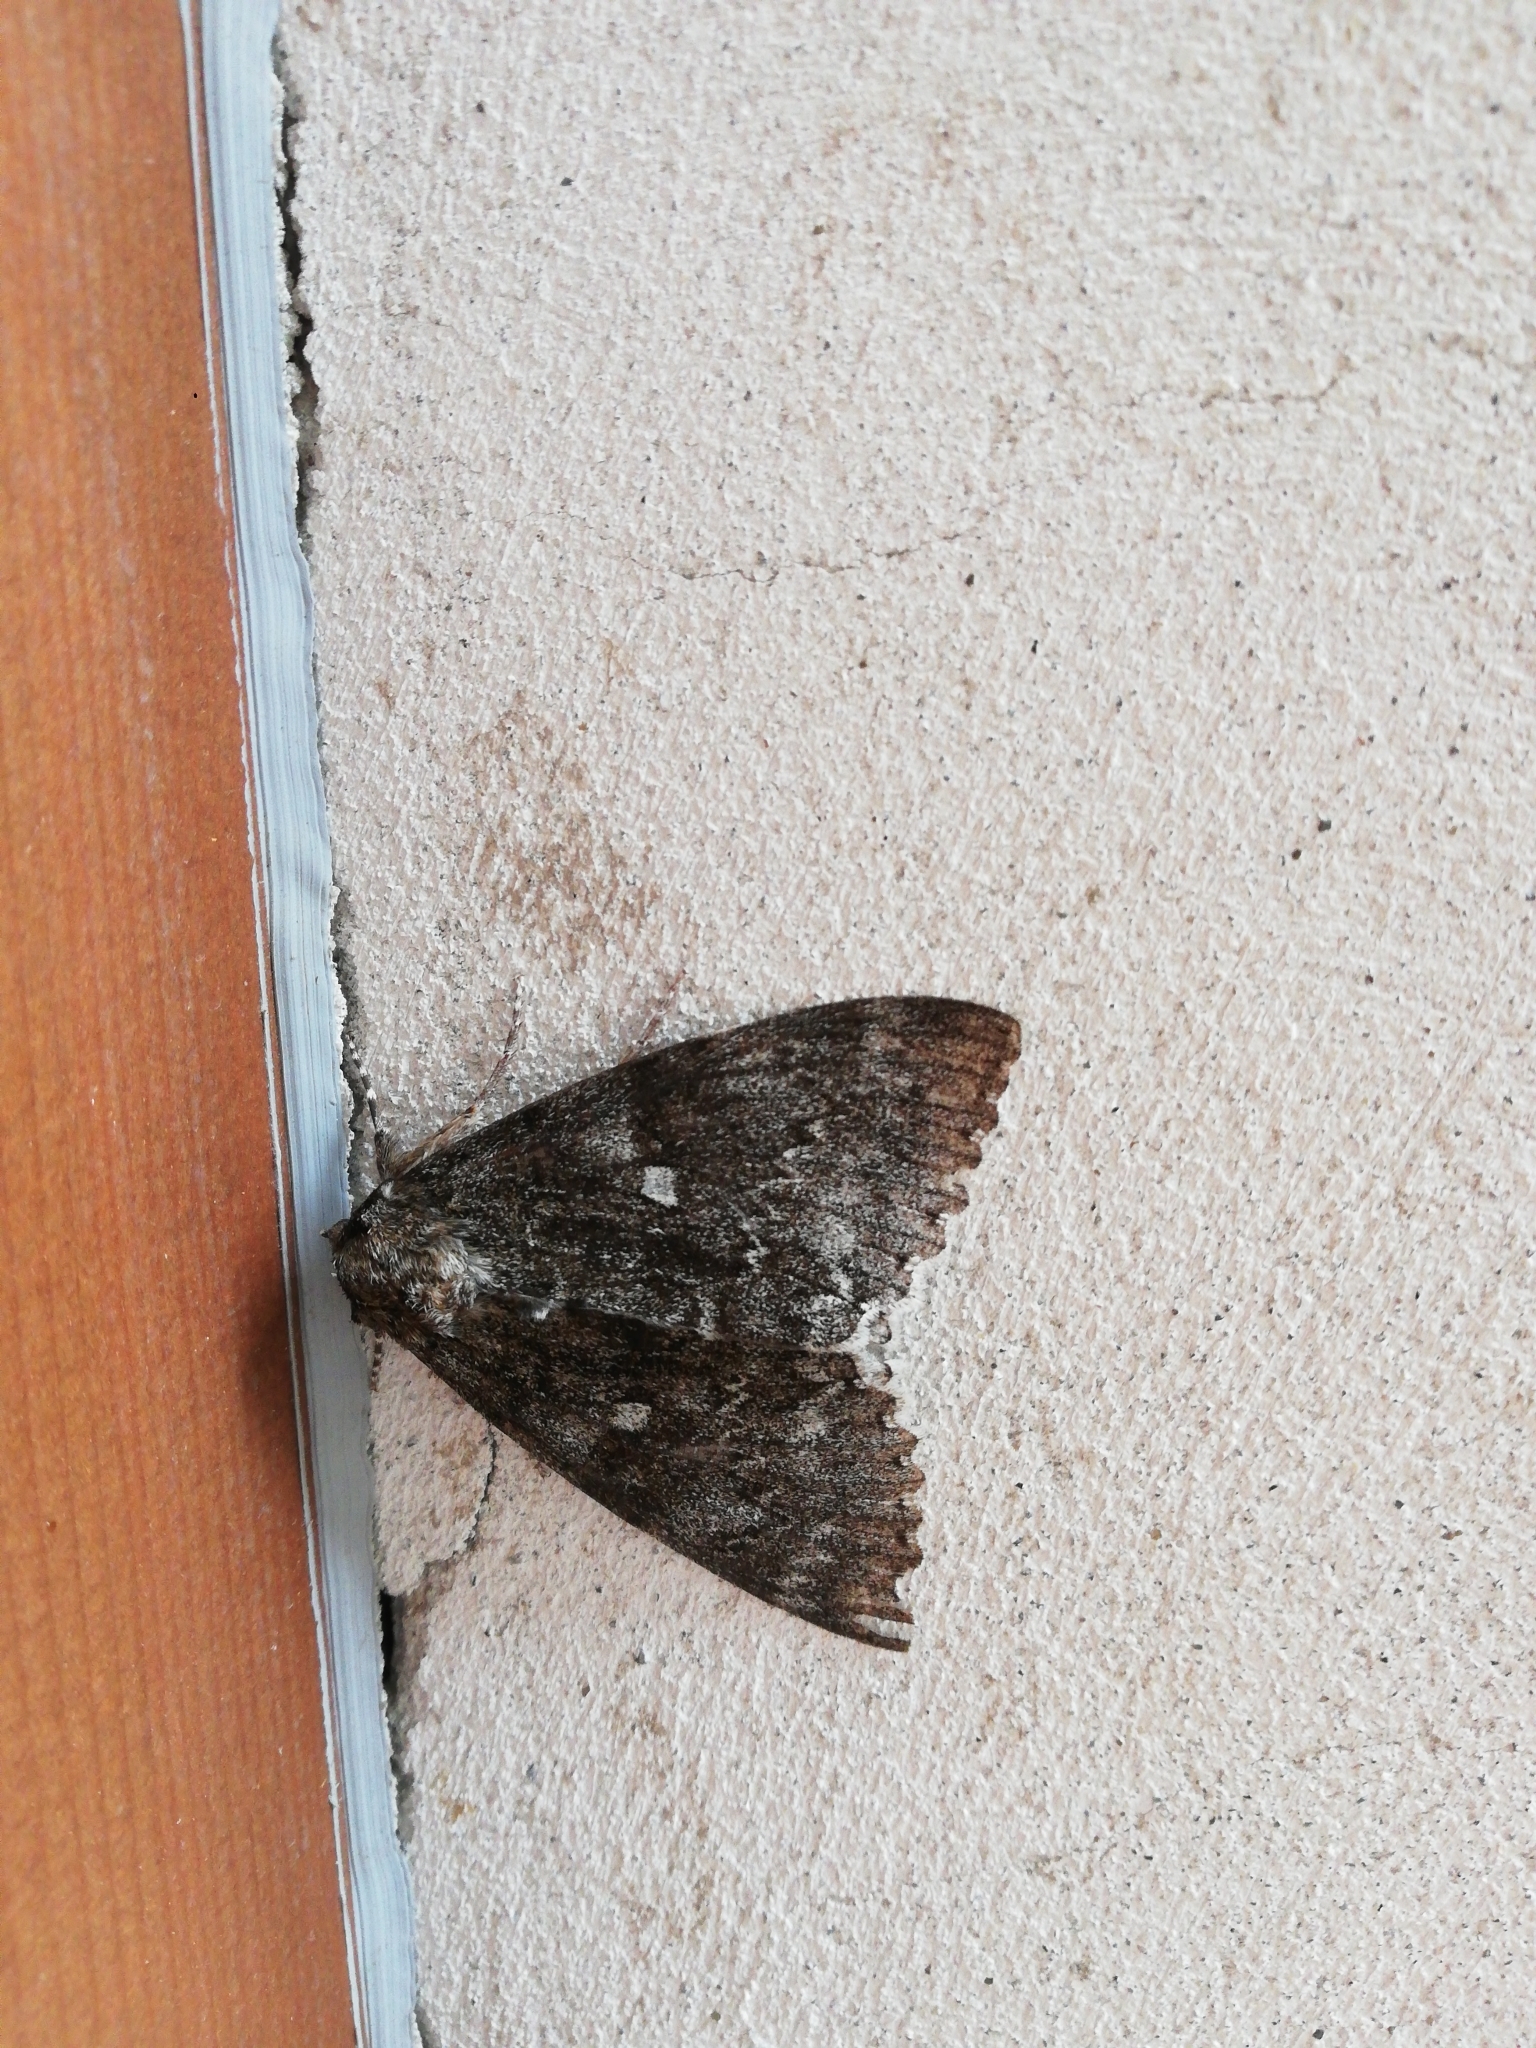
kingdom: Animalia
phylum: Arthropoda
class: Insecta
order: Lepidoptera
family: Erebidae
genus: Catocala
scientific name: Catocala fraxini
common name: Clifden nonpareil
